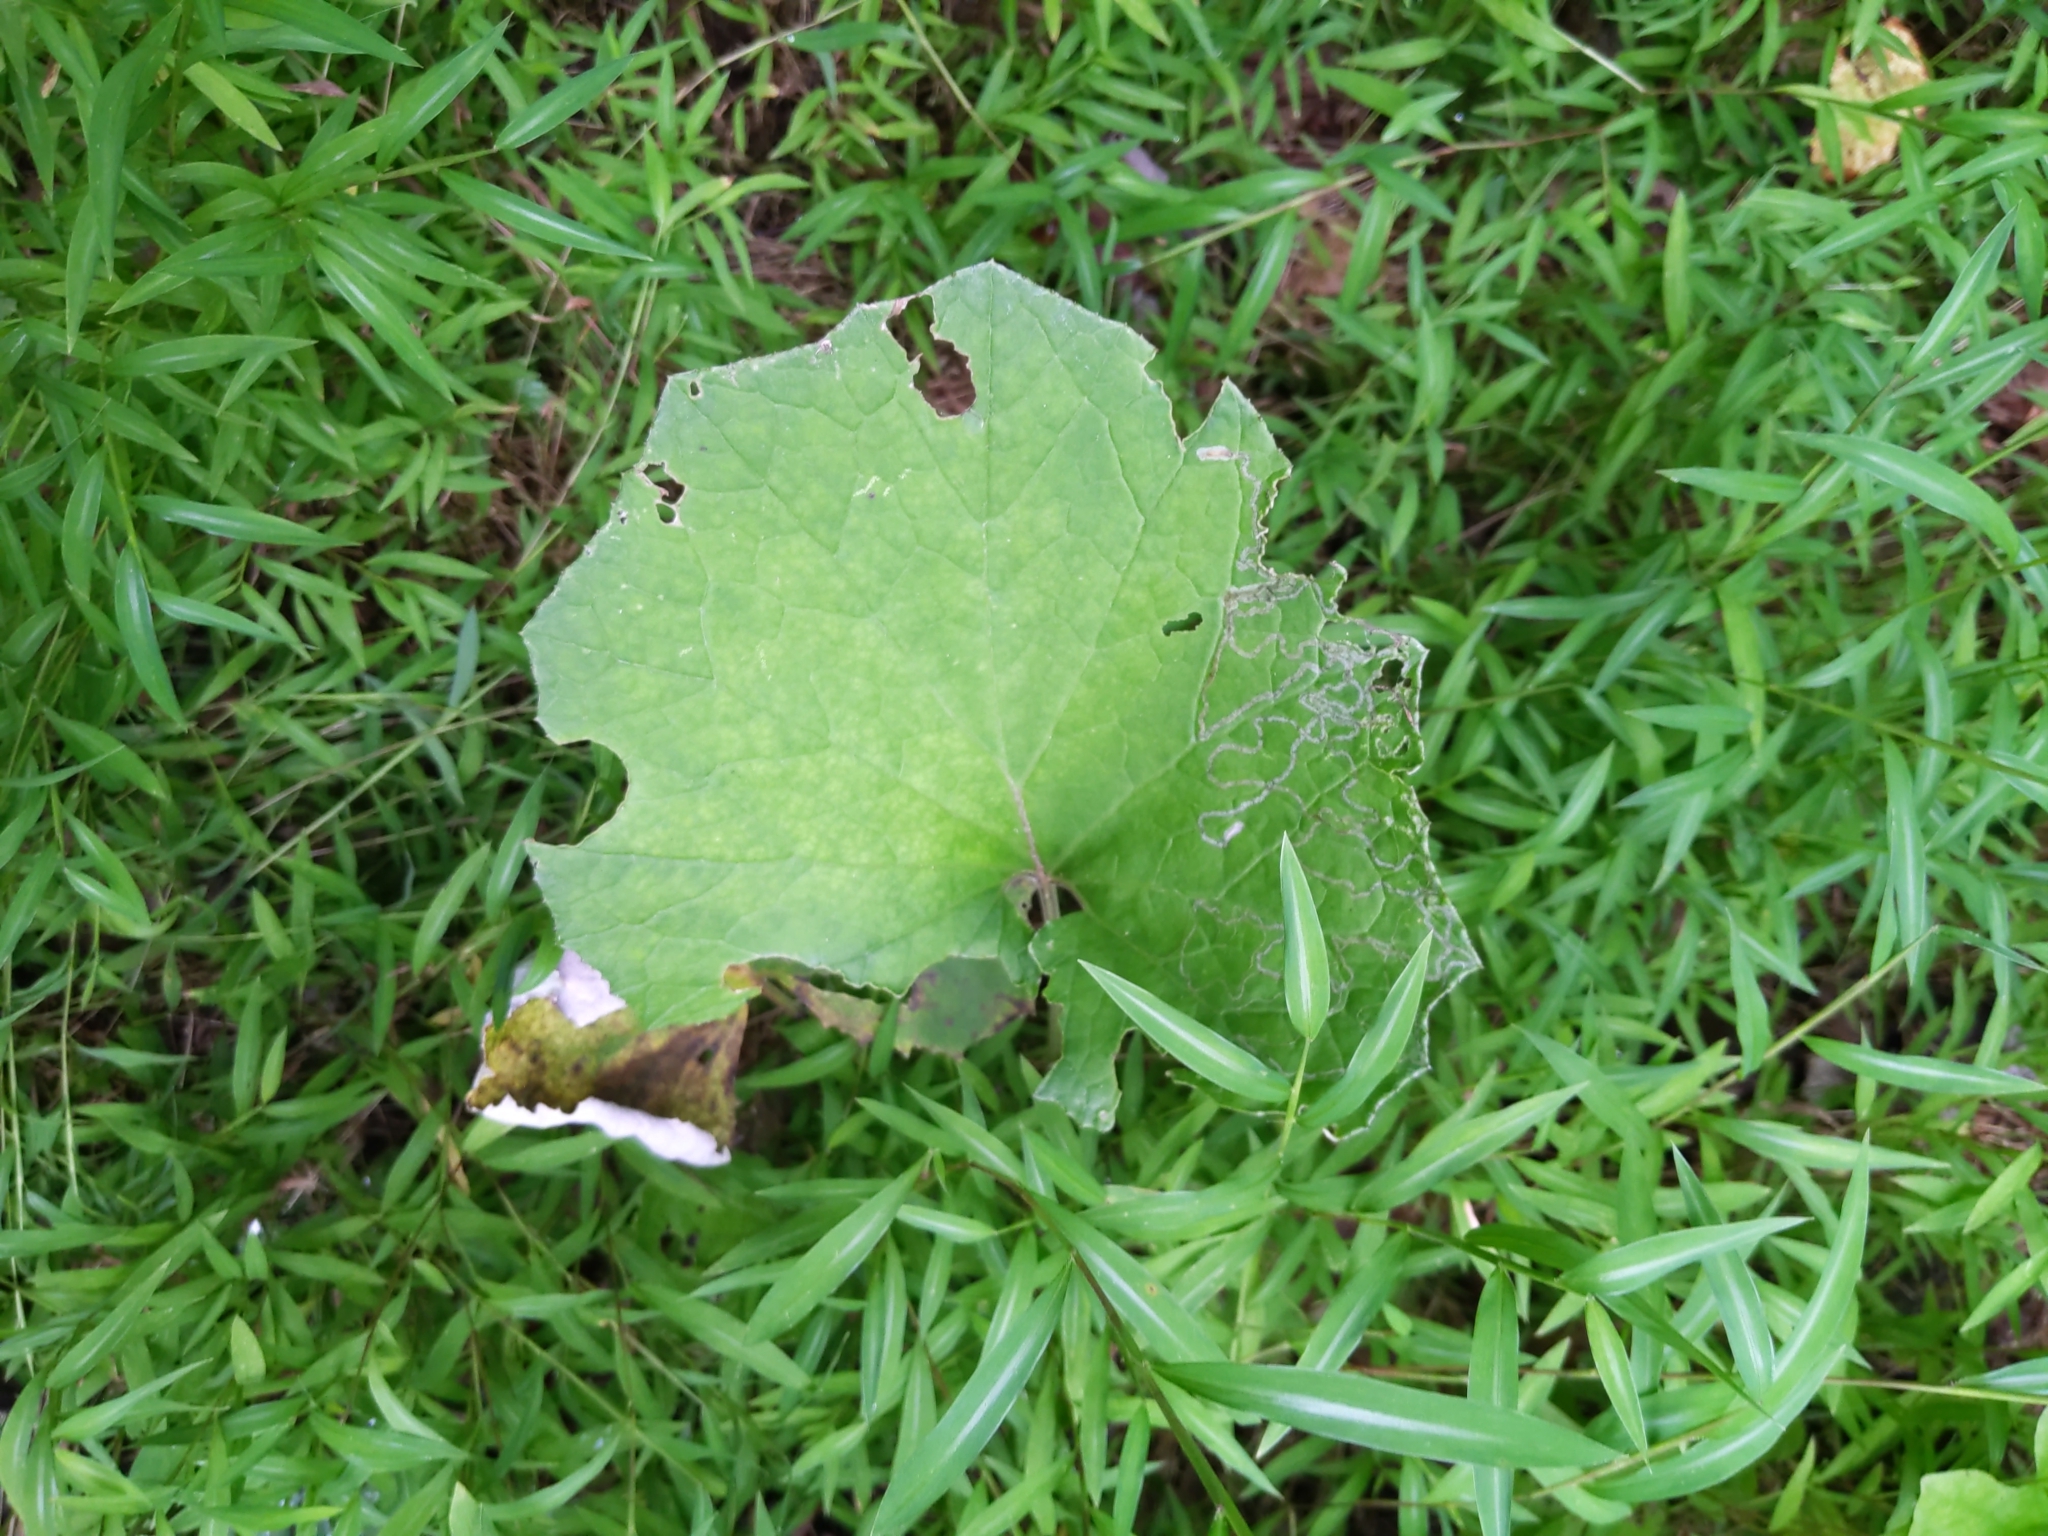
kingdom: Plantae
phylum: Tracheophyta
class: Magnoliopsida
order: Asterales
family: Asteraceae
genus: Tussilago
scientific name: Tussilago farfara
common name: Coltsfoot
